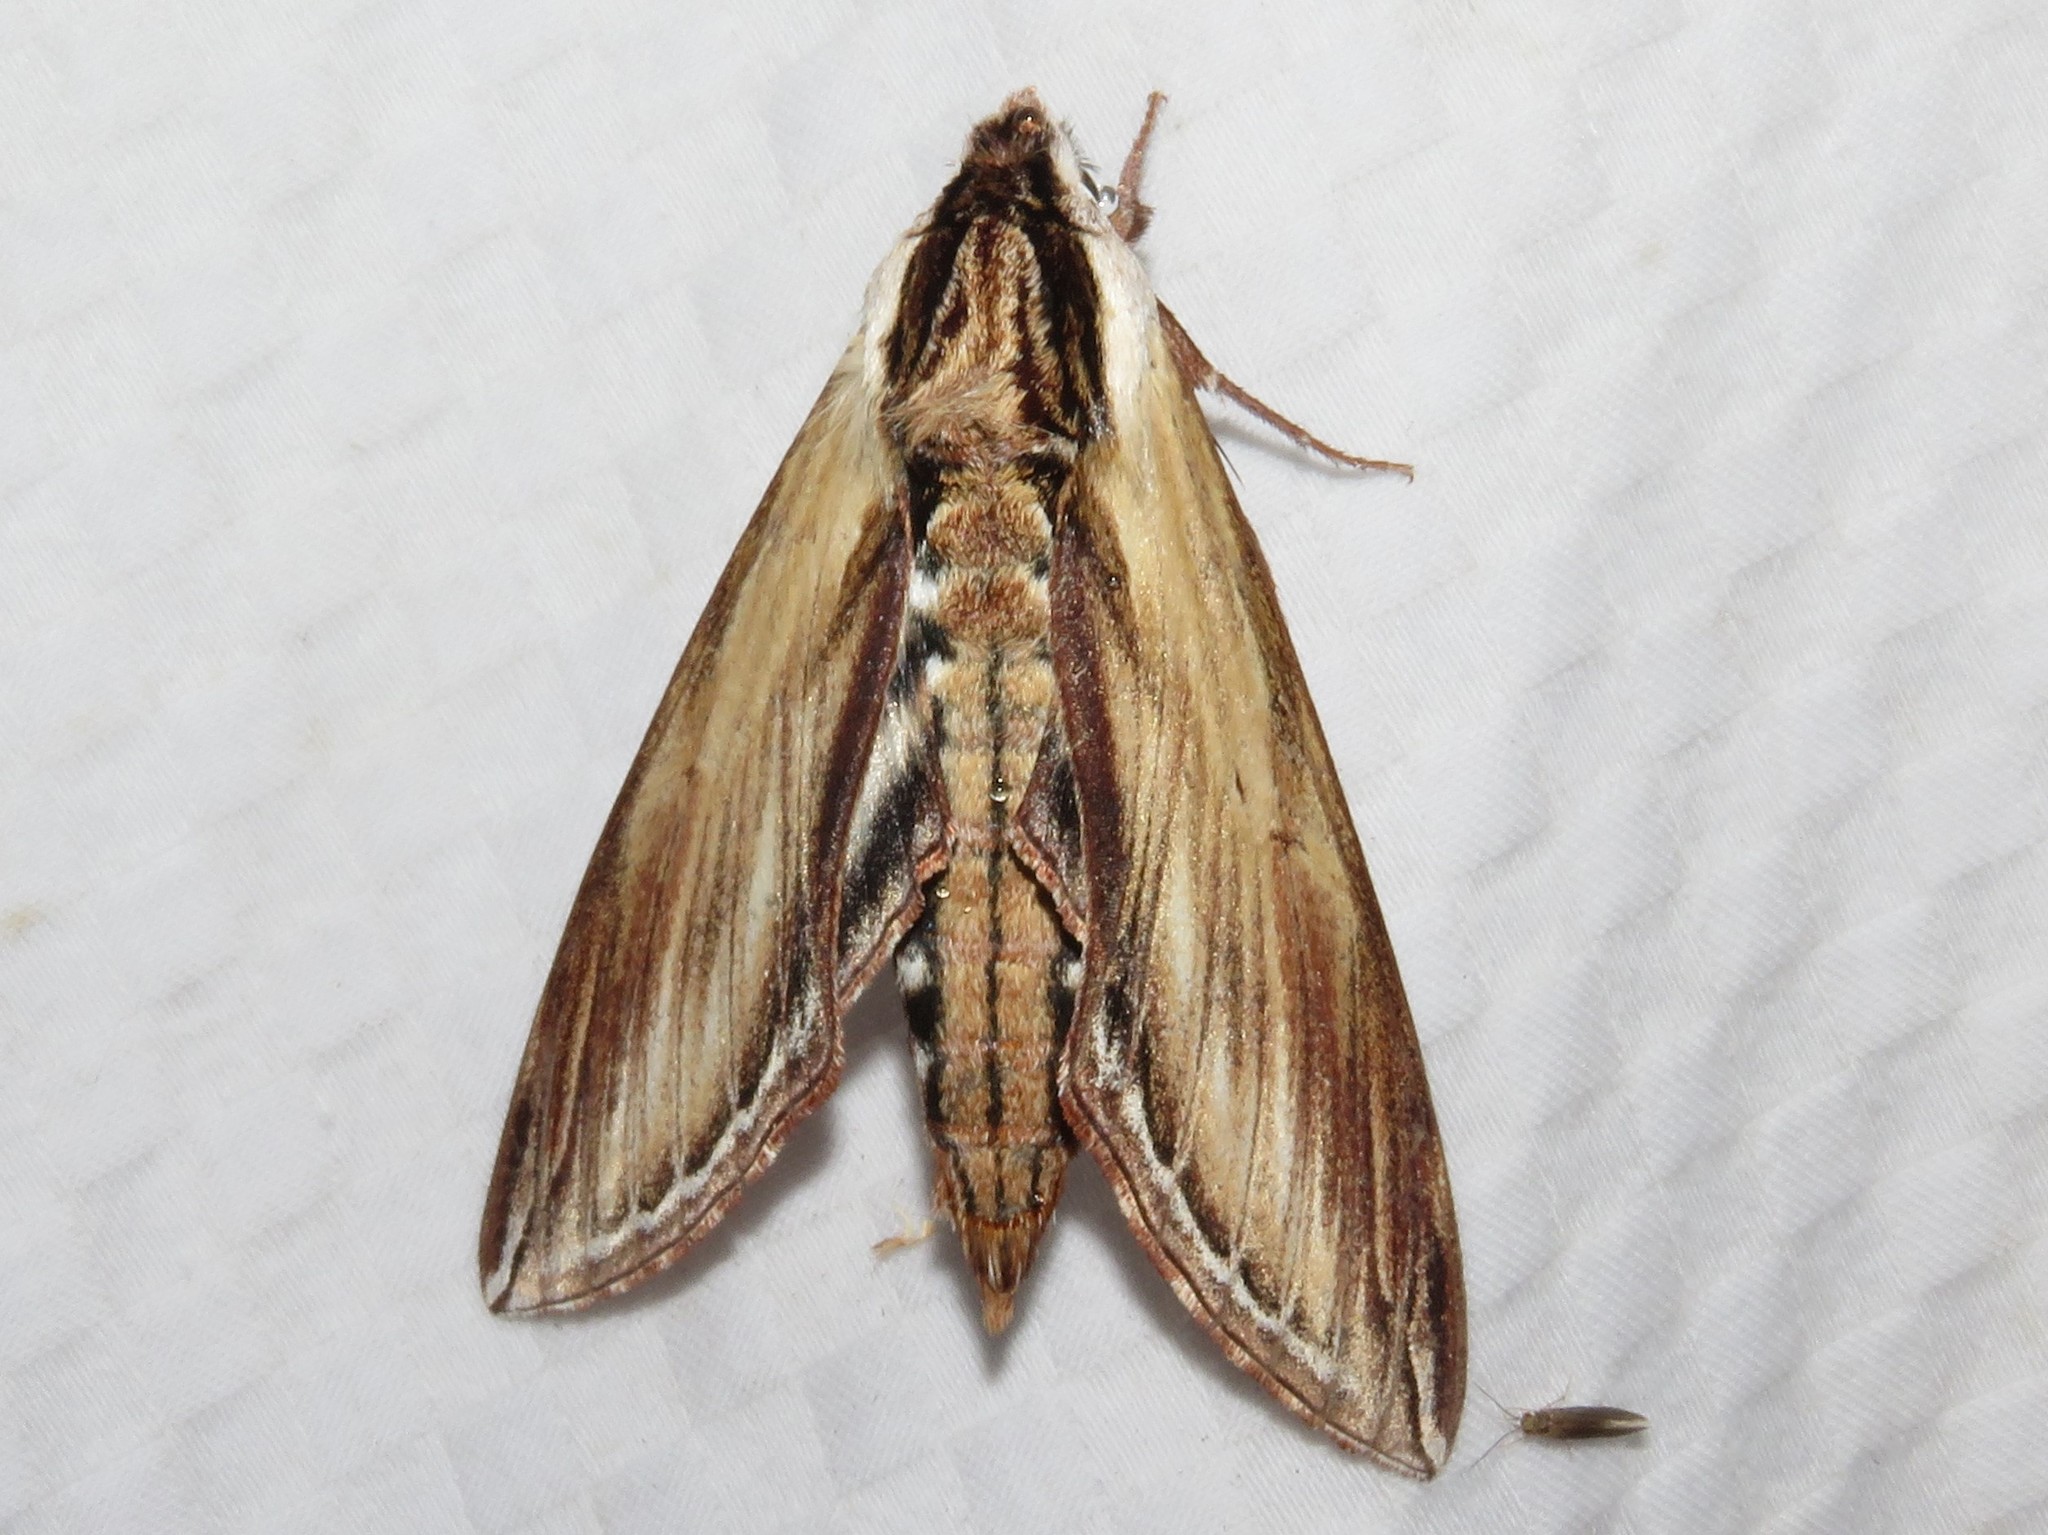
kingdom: Animalia
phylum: Arthropoda
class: Insecta
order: Lepidoptera
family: Sphingidae
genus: Sphinx
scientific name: Sphinx kalmiae
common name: Laurel sphinx
